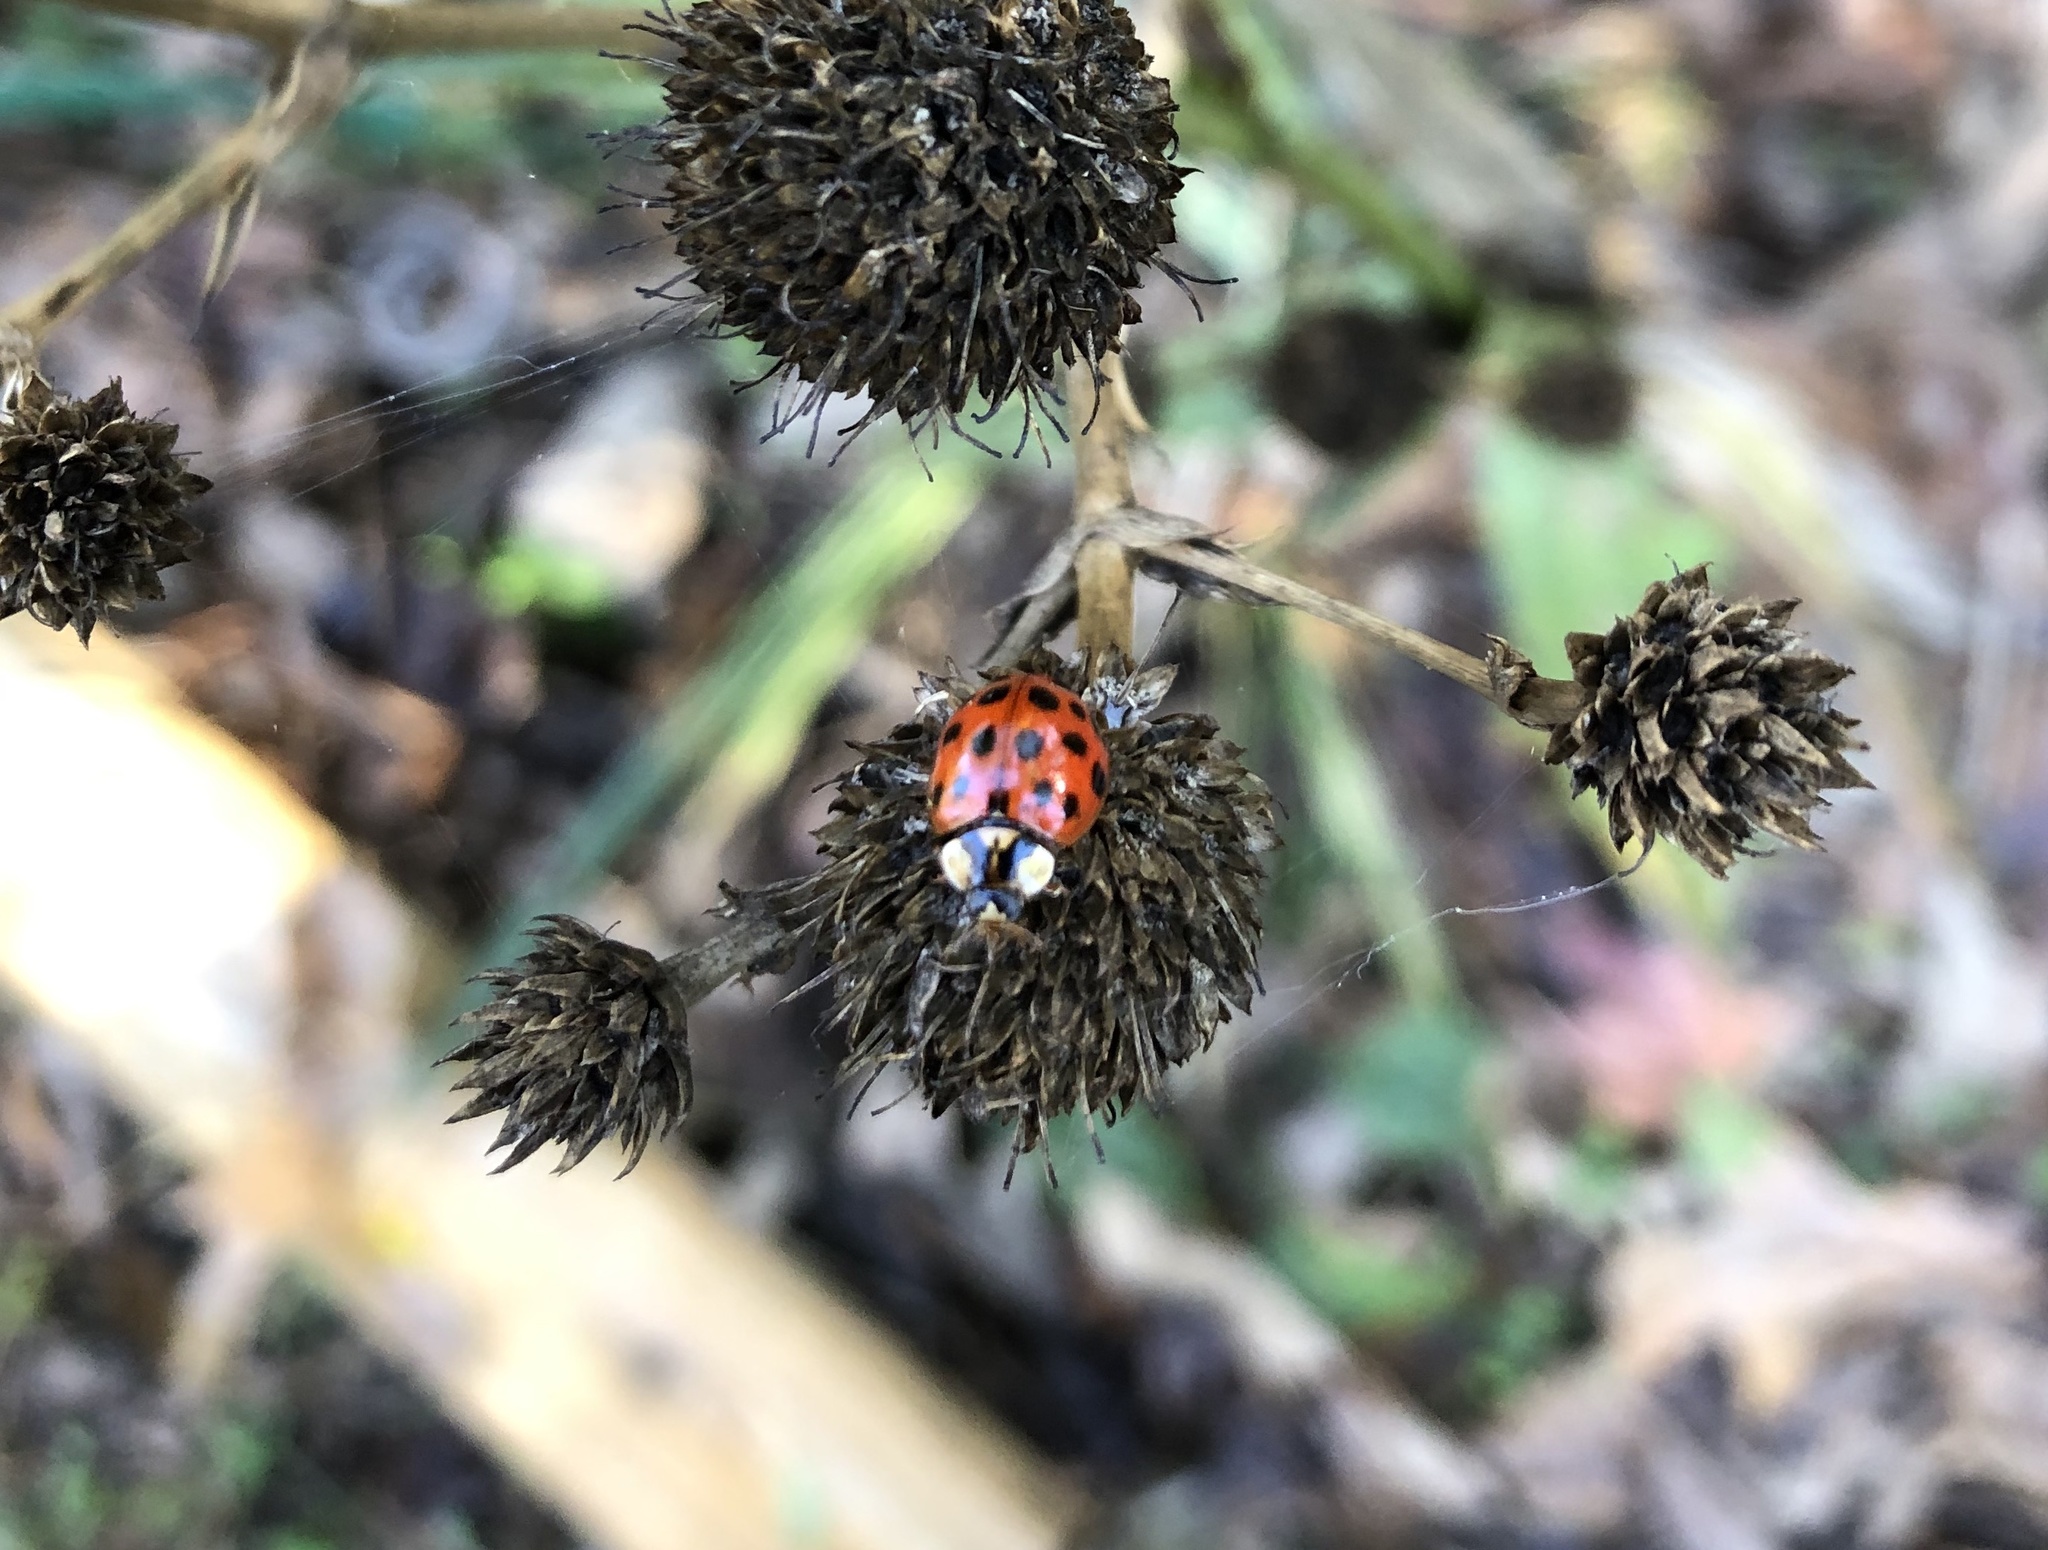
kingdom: Animalia
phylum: Arthropoda
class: Insecta
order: Coleoptera
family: Coccinellidae
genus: Harmonia
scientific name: Harmonia axyridis
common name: Harlequin ladybird
